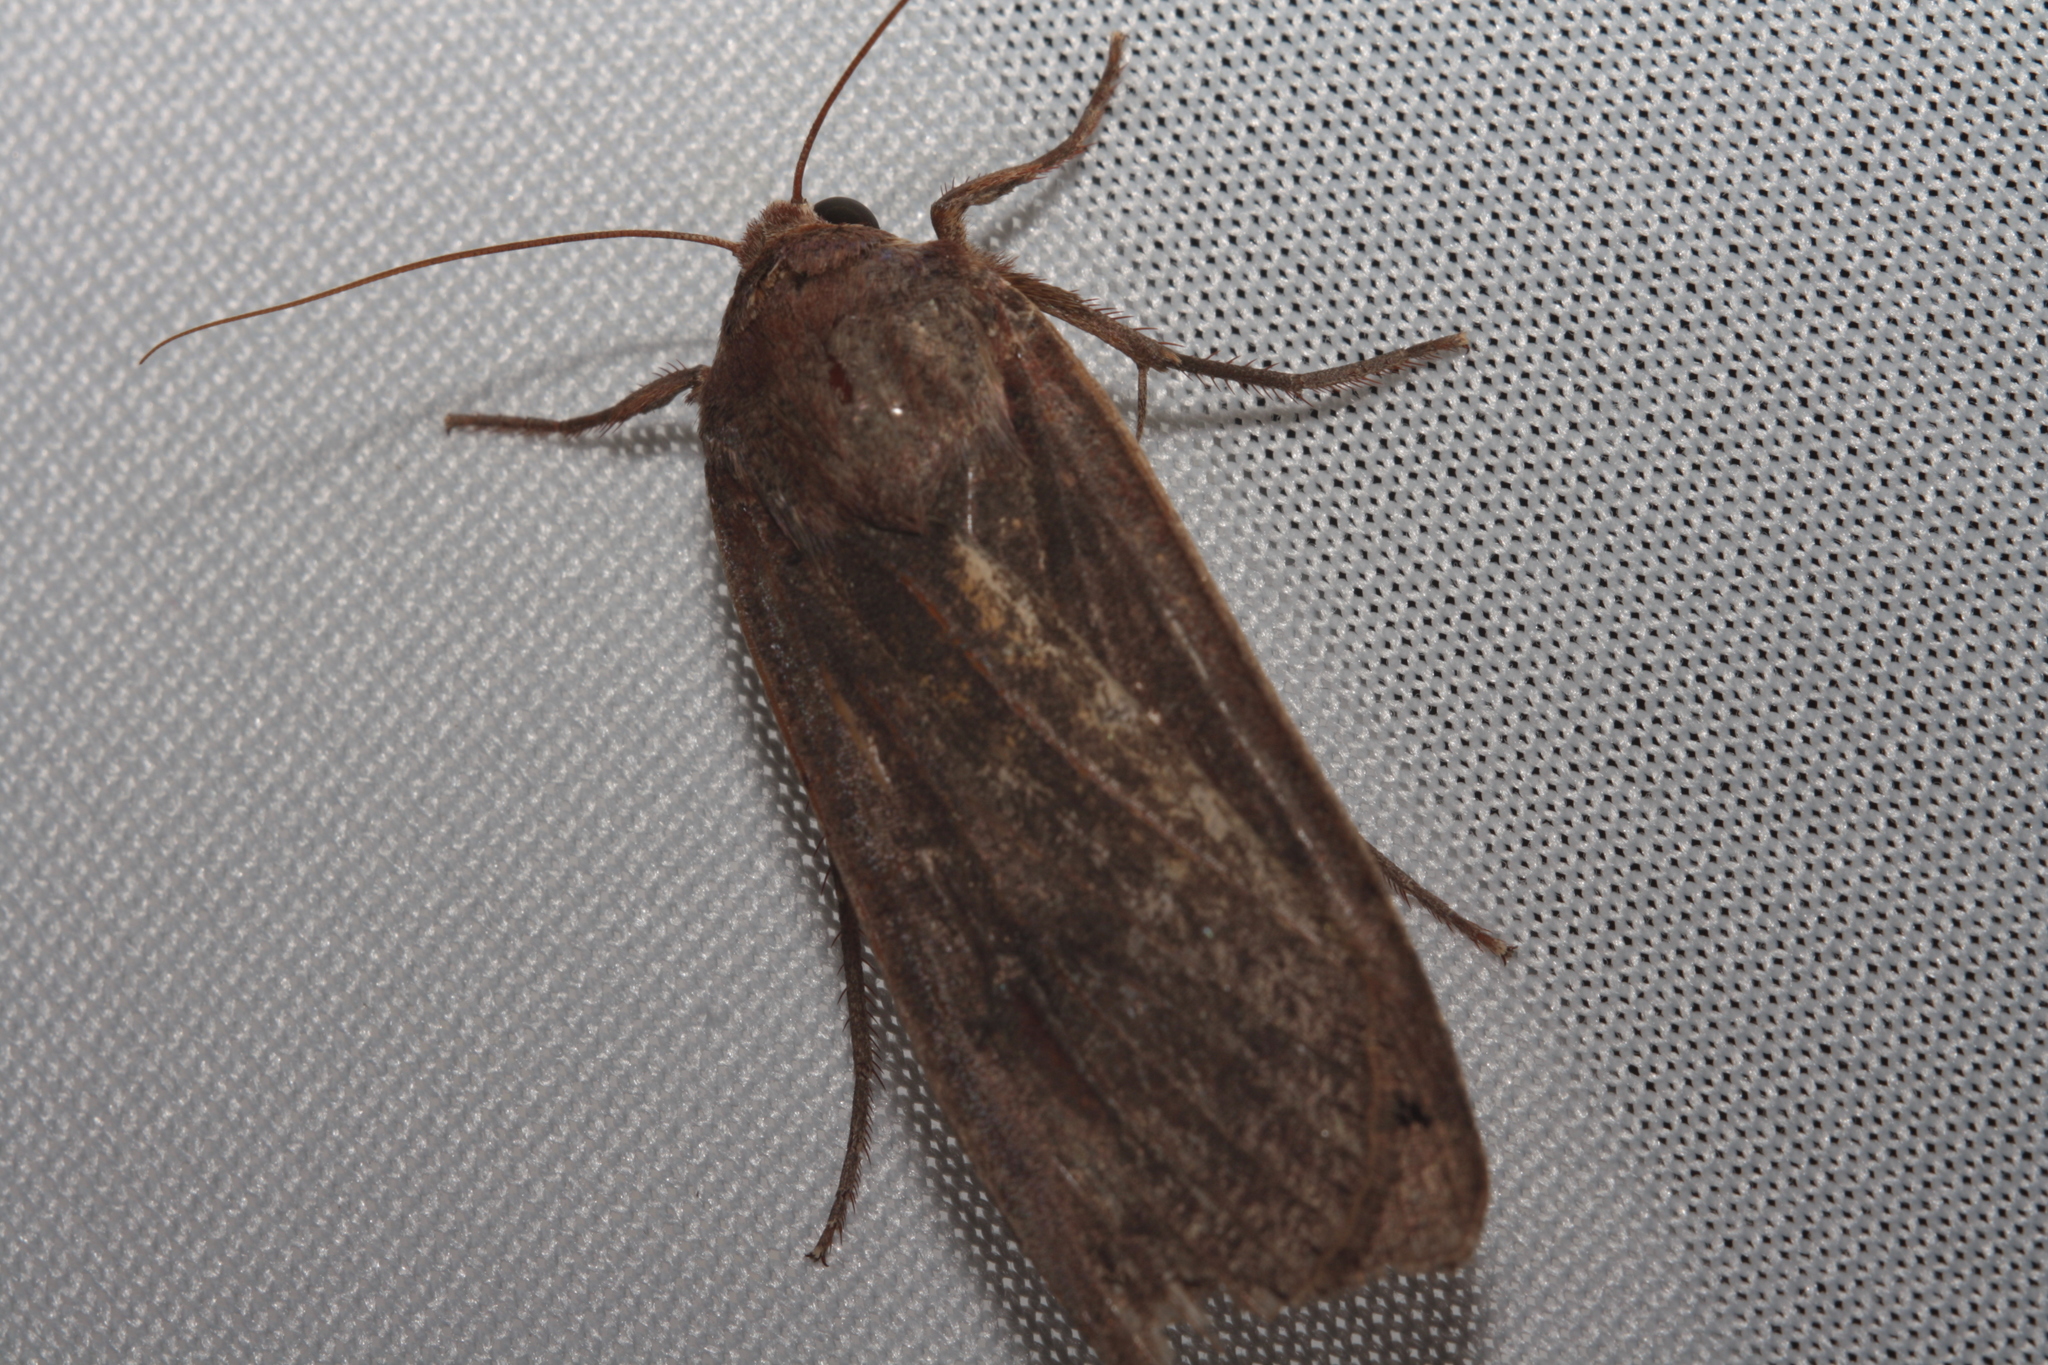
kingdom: Animalia
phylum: Arthropoda
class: Insecta
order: Lepidoptera
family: Noctuidae
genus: Noctua
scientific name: Noctua pronuba
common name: Large yellow underwing
